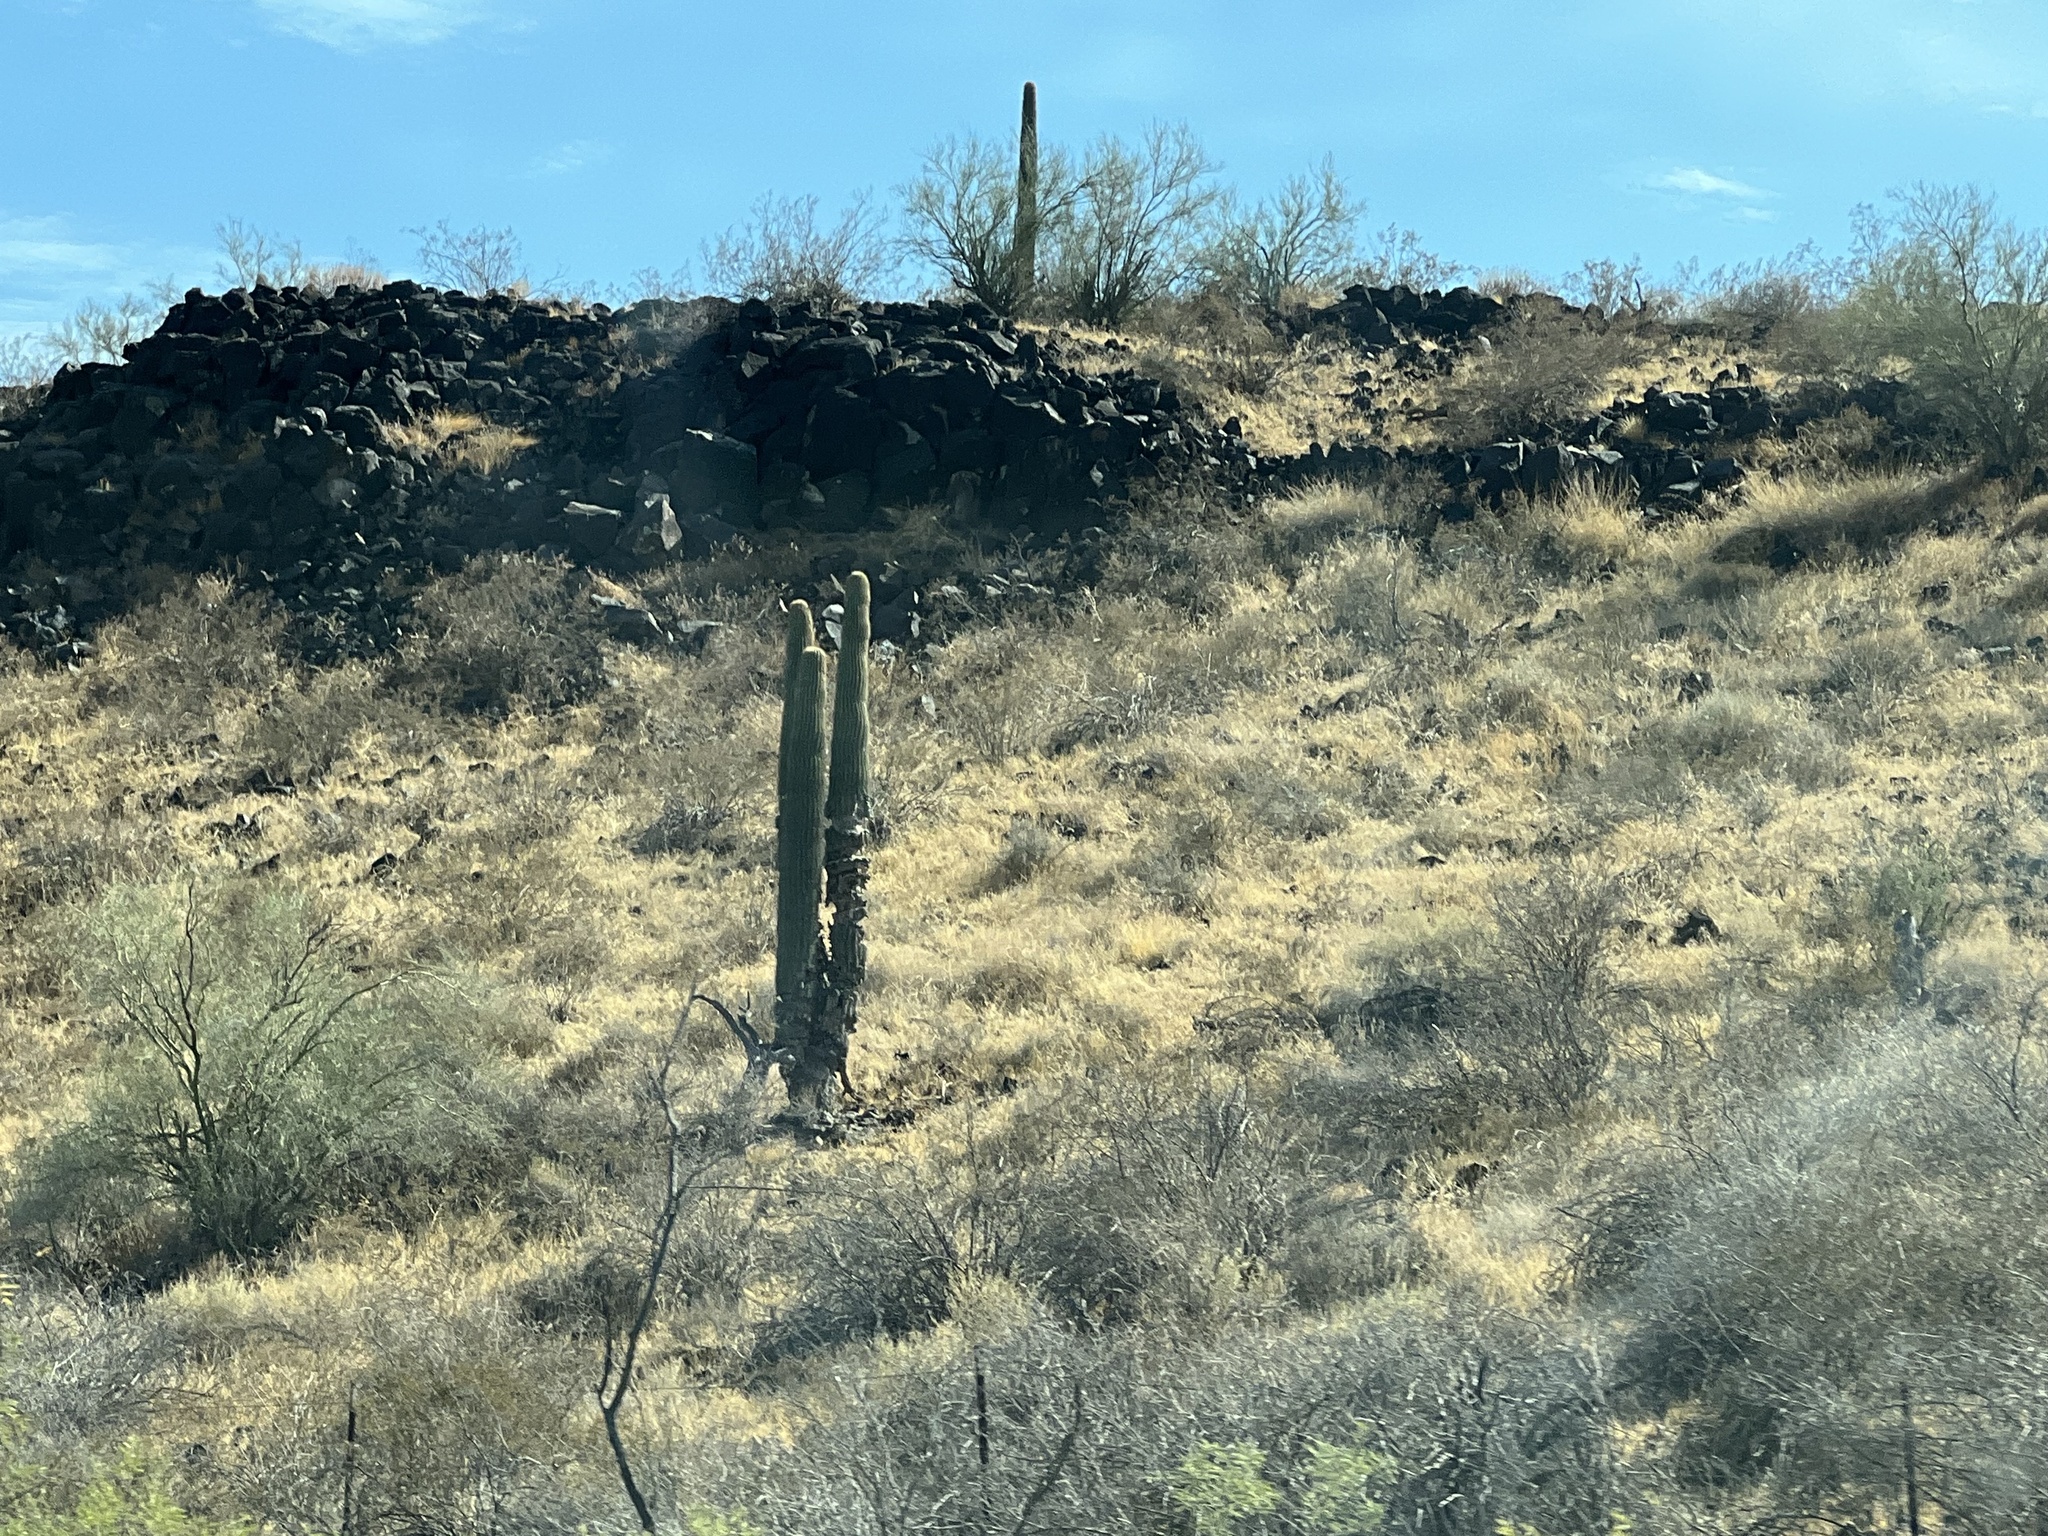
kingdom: Plantae
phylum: Tracheophyta
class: Magnoliopsida
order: Caryophyllales
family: Cactaceae
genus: Carnegiea
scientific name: Carnegiea gigantea
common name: Saguaro
